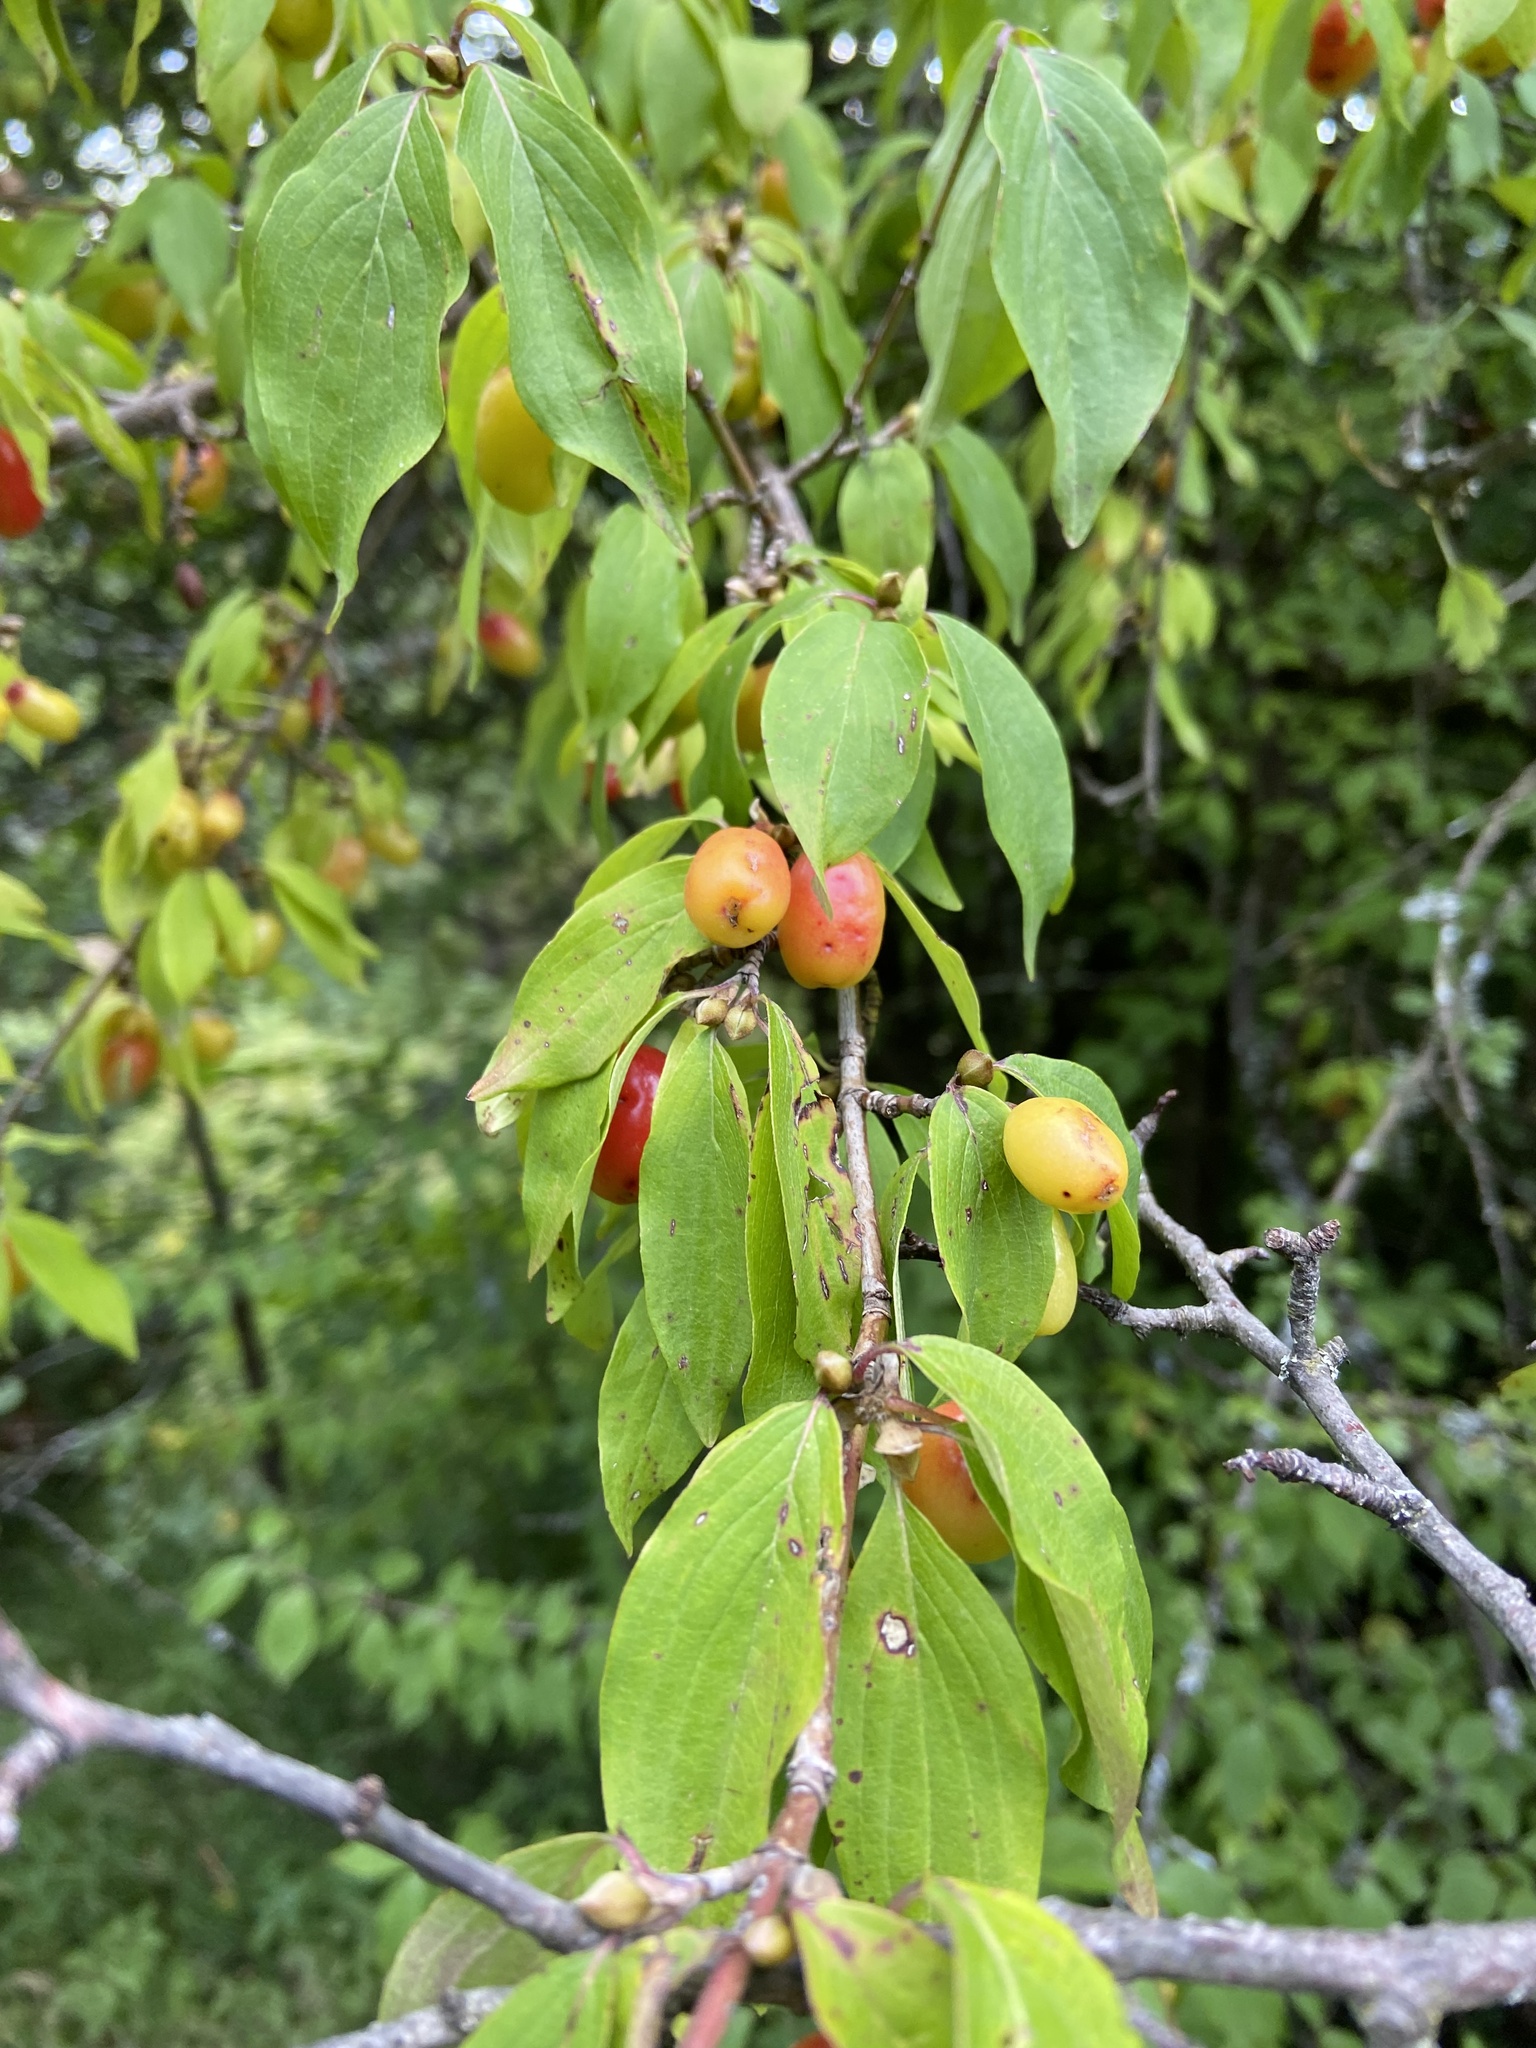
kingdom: Plantae
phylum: Tracheophyta
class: Magnoliopsida
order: Cornales
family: Cornaceae
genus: Cornus
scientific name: Cornus mas
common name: Cornelian-cherry
